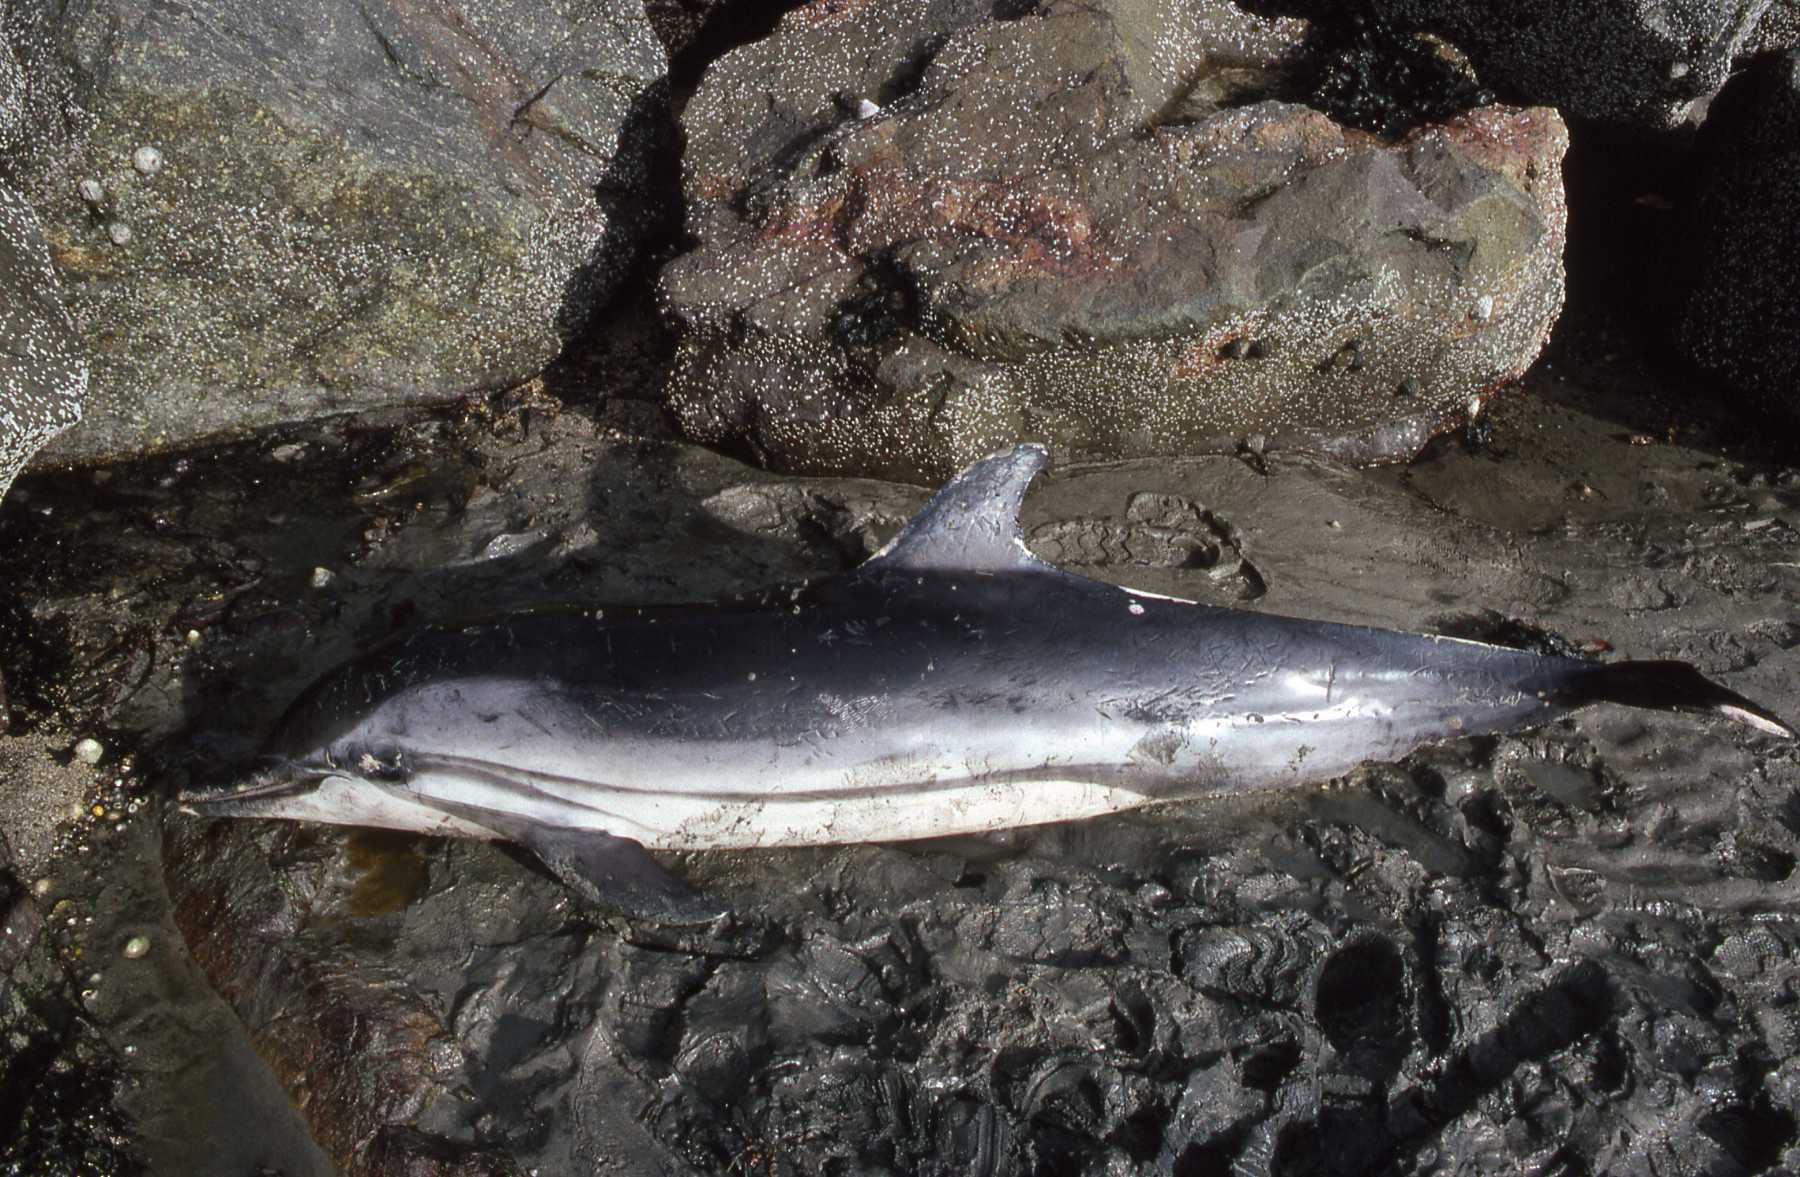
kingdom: Animalia
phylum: Chordata
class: Mammalia
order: Cetacea
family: Delphinidae
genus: Stenella
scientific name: Stenella coeruleoalba
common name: Striped dolphin
